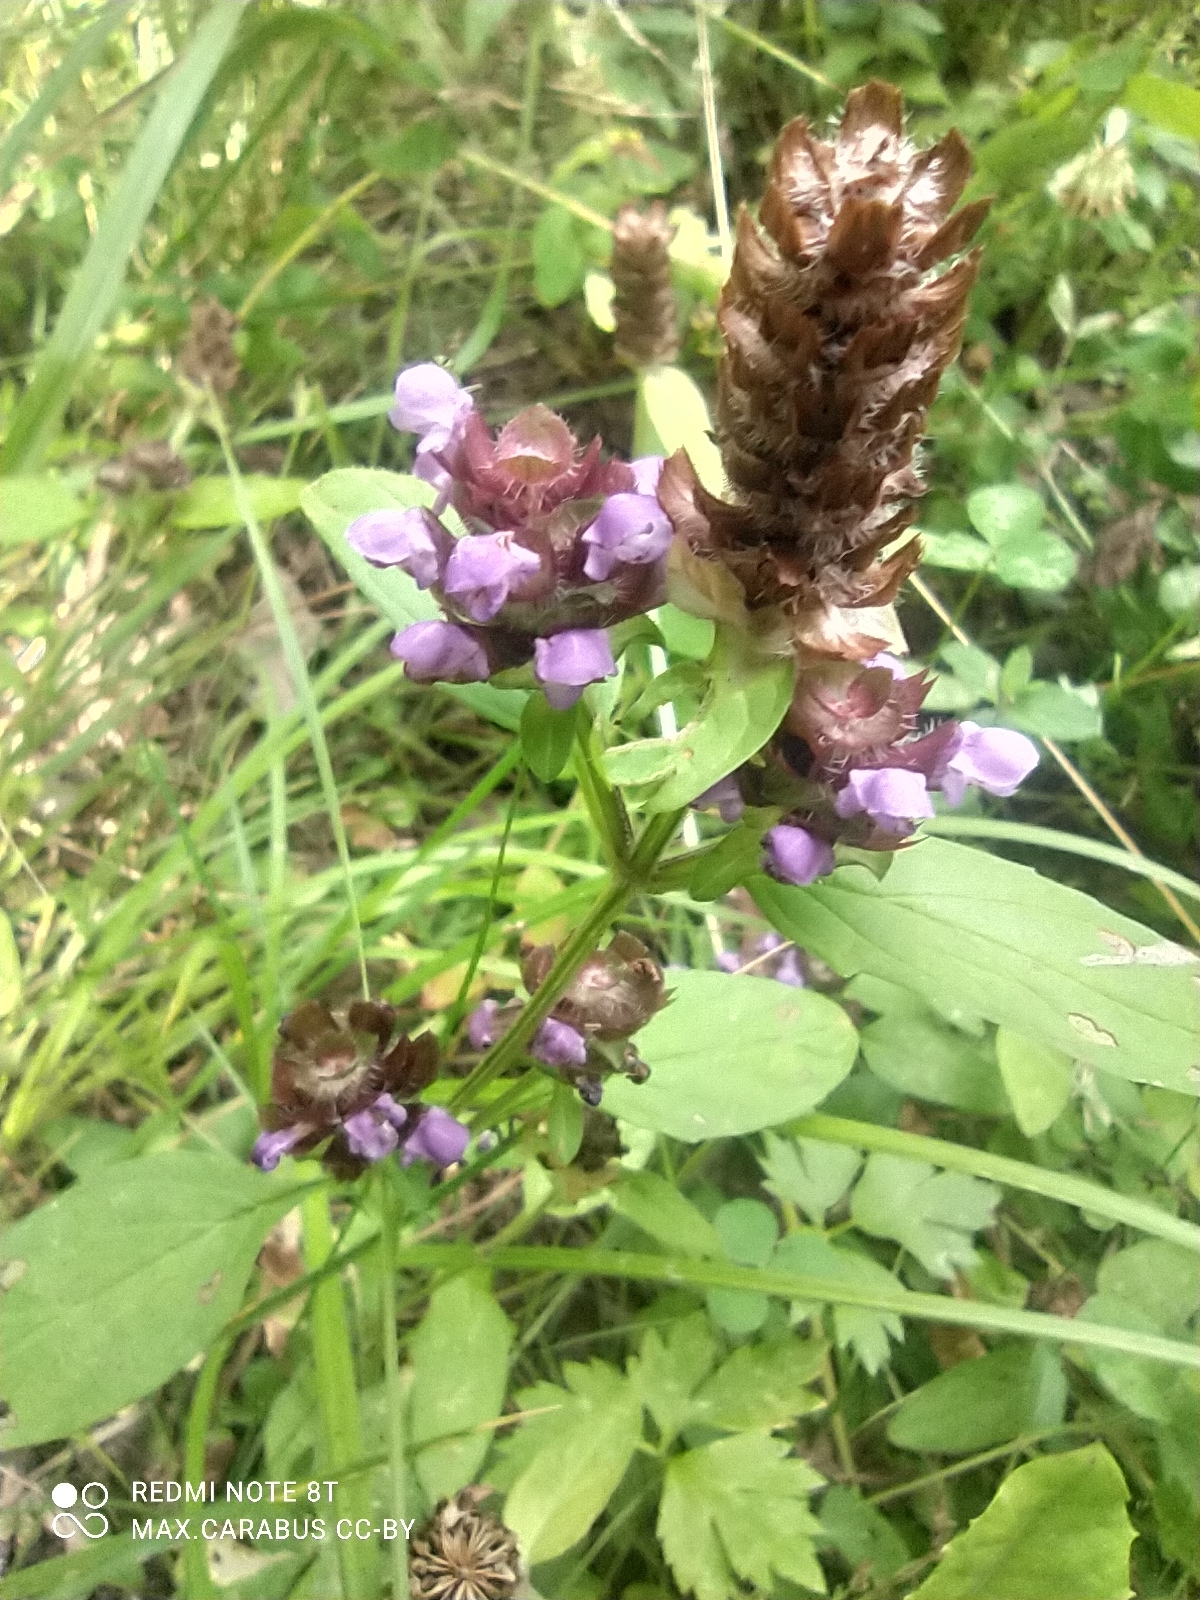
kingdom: Plantae
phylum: Tracheophyta
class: Magnoliopsida
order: Lamiales
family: Lamiaceae
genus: Prunella
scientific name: Prunella vulgaris
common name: Heal-all
